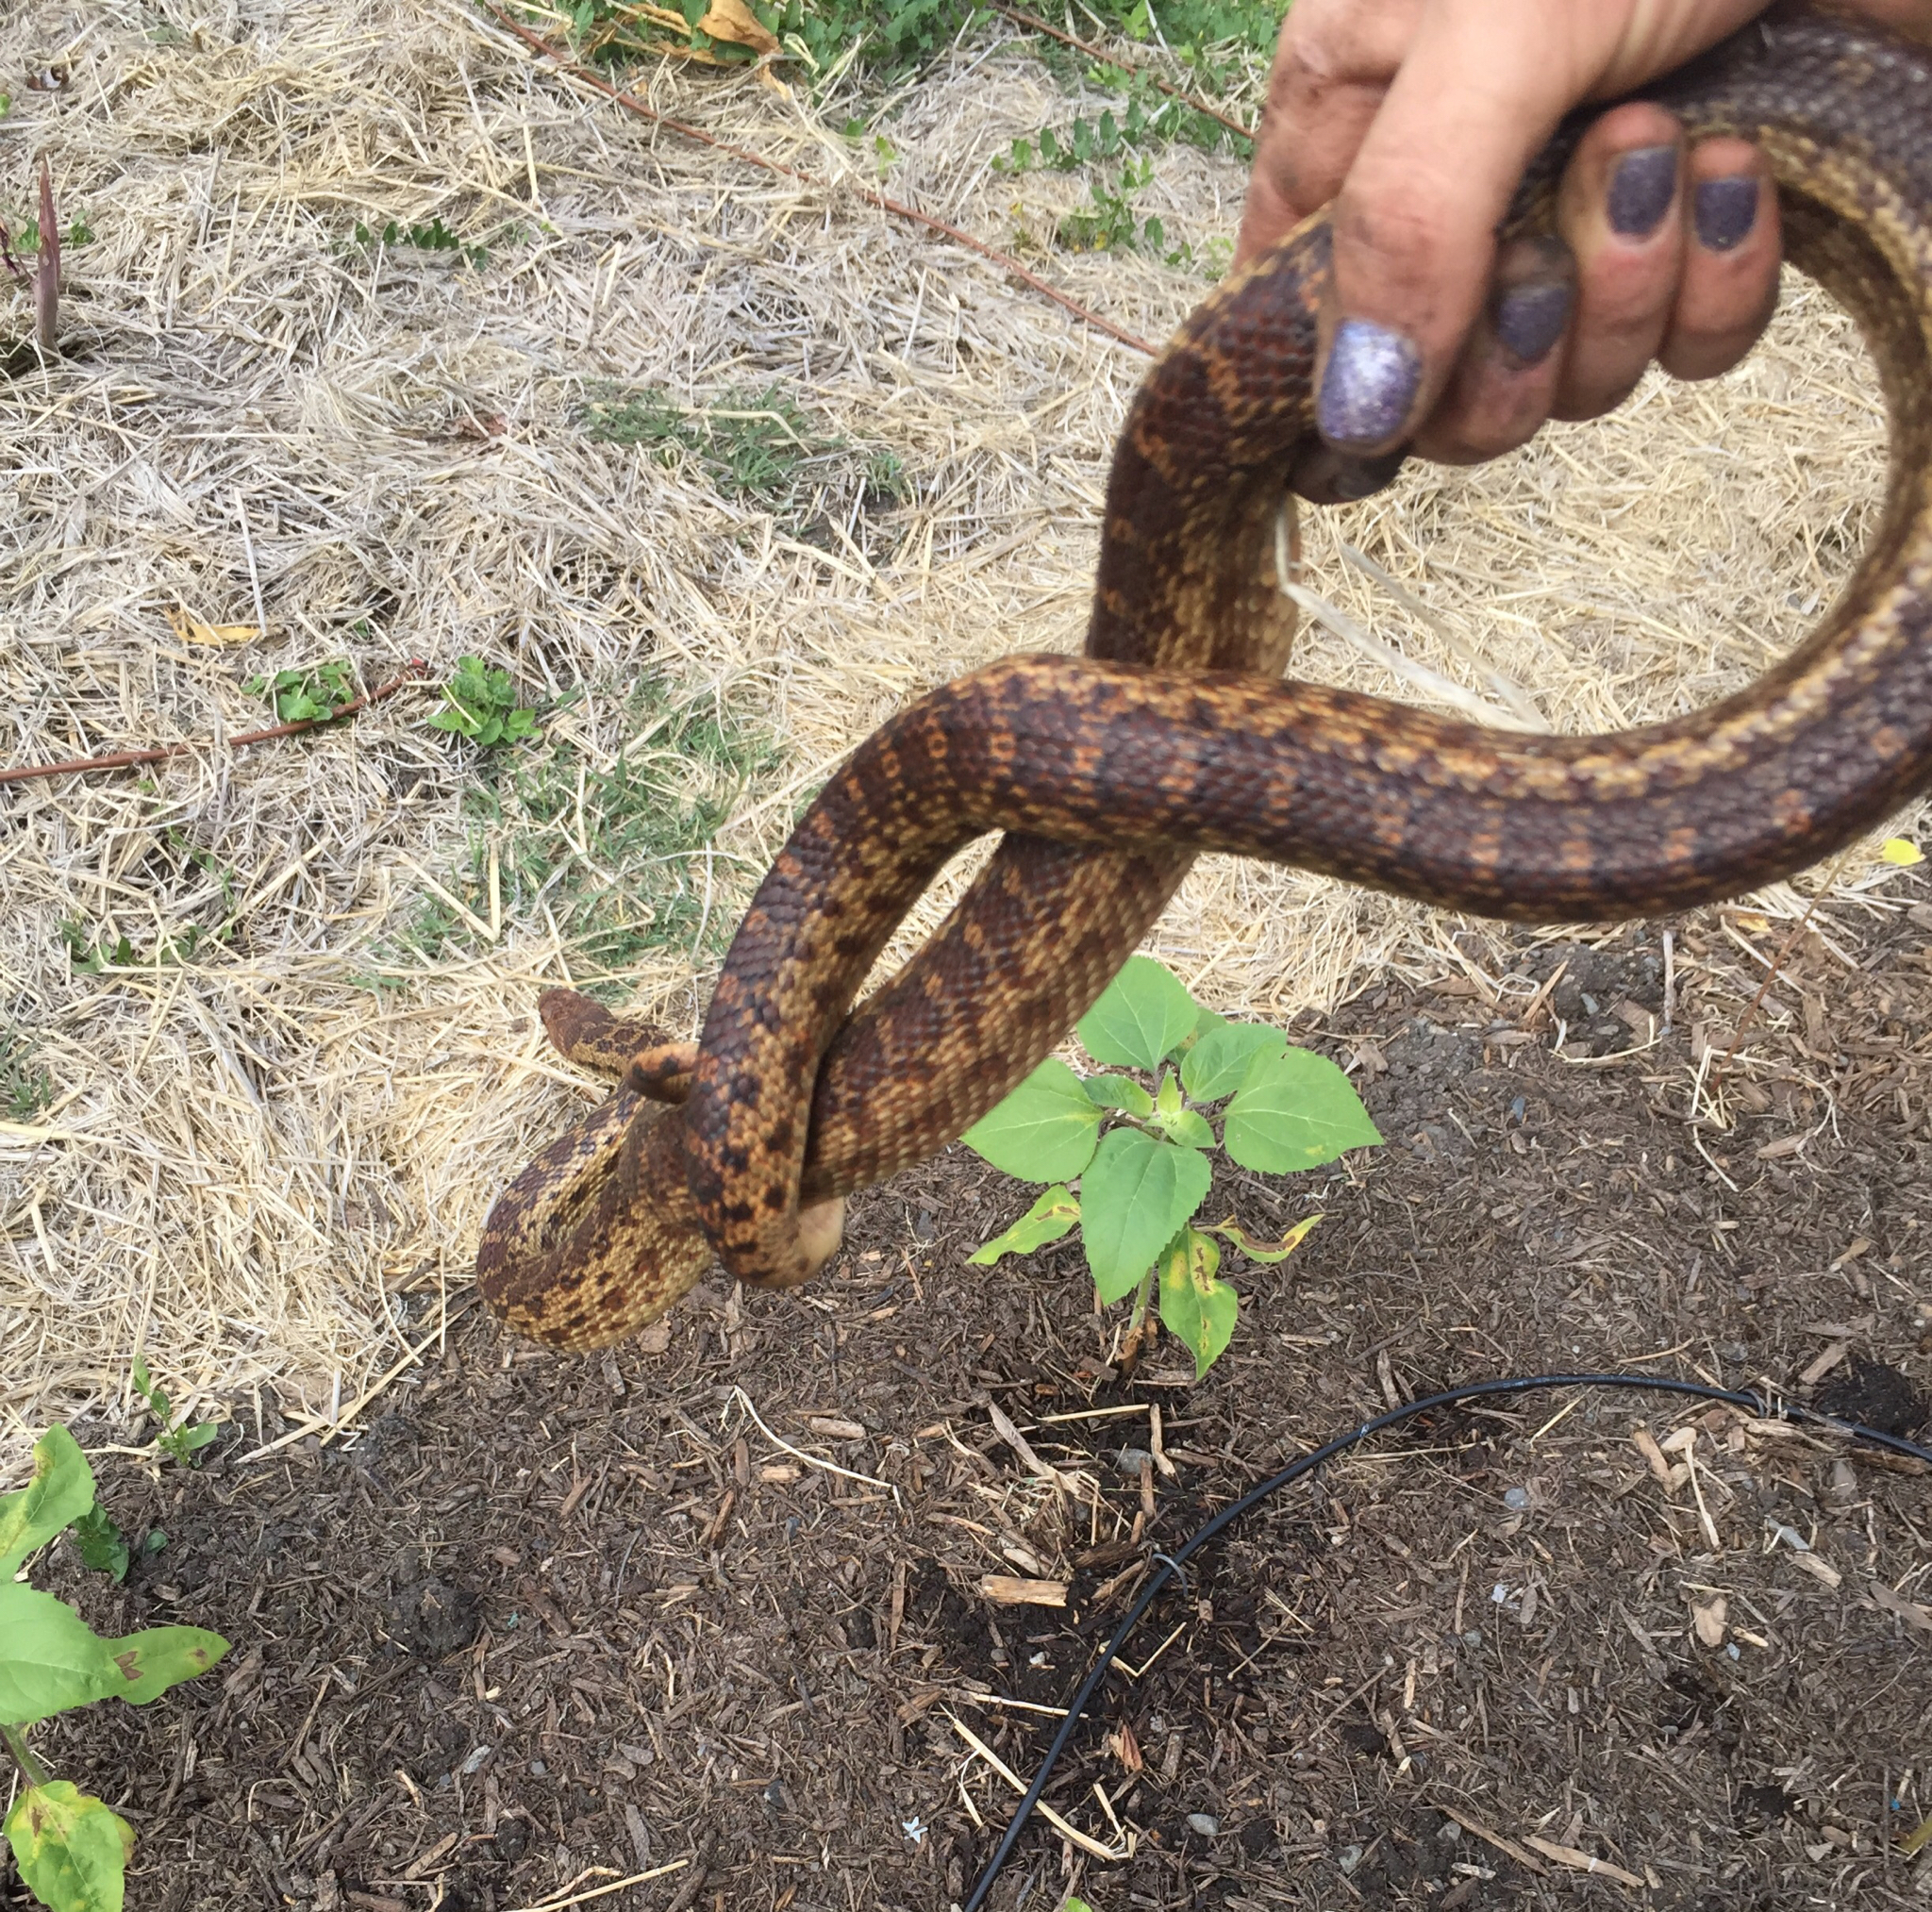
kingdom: Animalia
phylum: Chordata
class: Squamata
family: Colubridae
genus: Pituophis
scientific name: Pituophis catenifer
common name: Gopher snake
